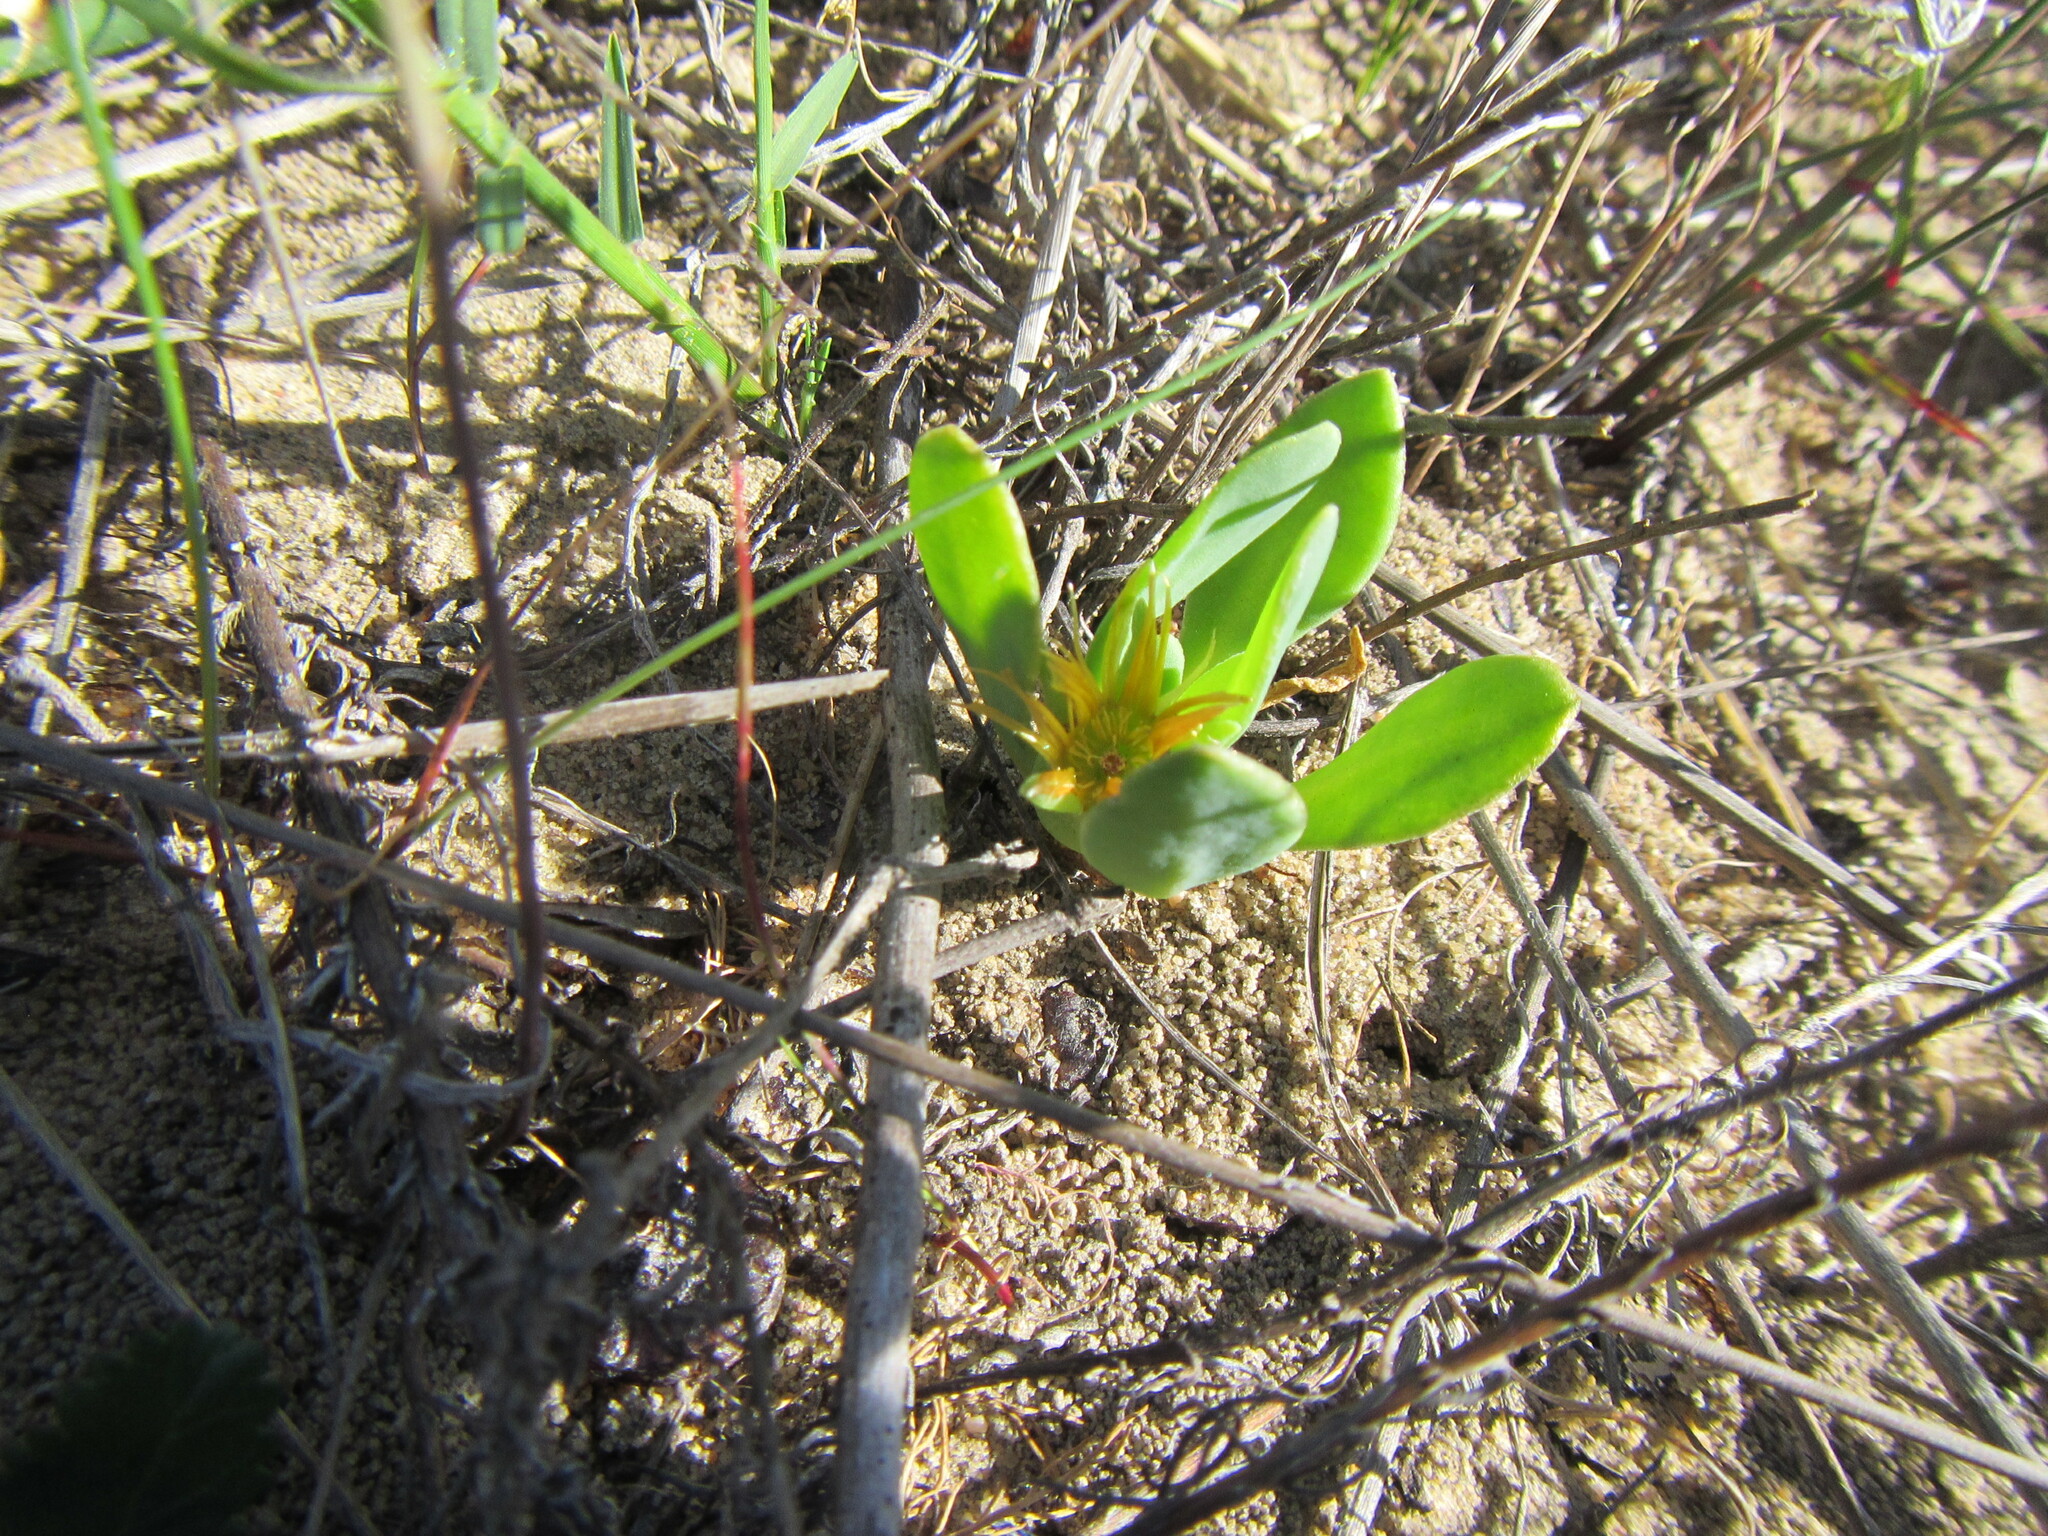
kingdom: Plantae
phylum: Tracheophyta
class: Magnoliopsida
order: Caryophyllales
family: Aizoaceae
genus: Hymenogyne
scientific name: Hymenogyne glabra
